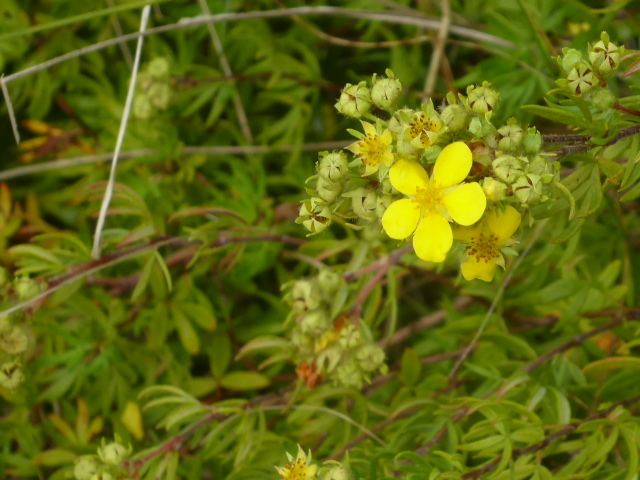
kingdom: Plantae
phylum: Tracheophyta
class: Magnoliopsida
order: Rosales
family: Rosaceae
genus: Dasiphora
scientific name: Dasiphora fruticosa
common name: Shrubby cinquefoil
